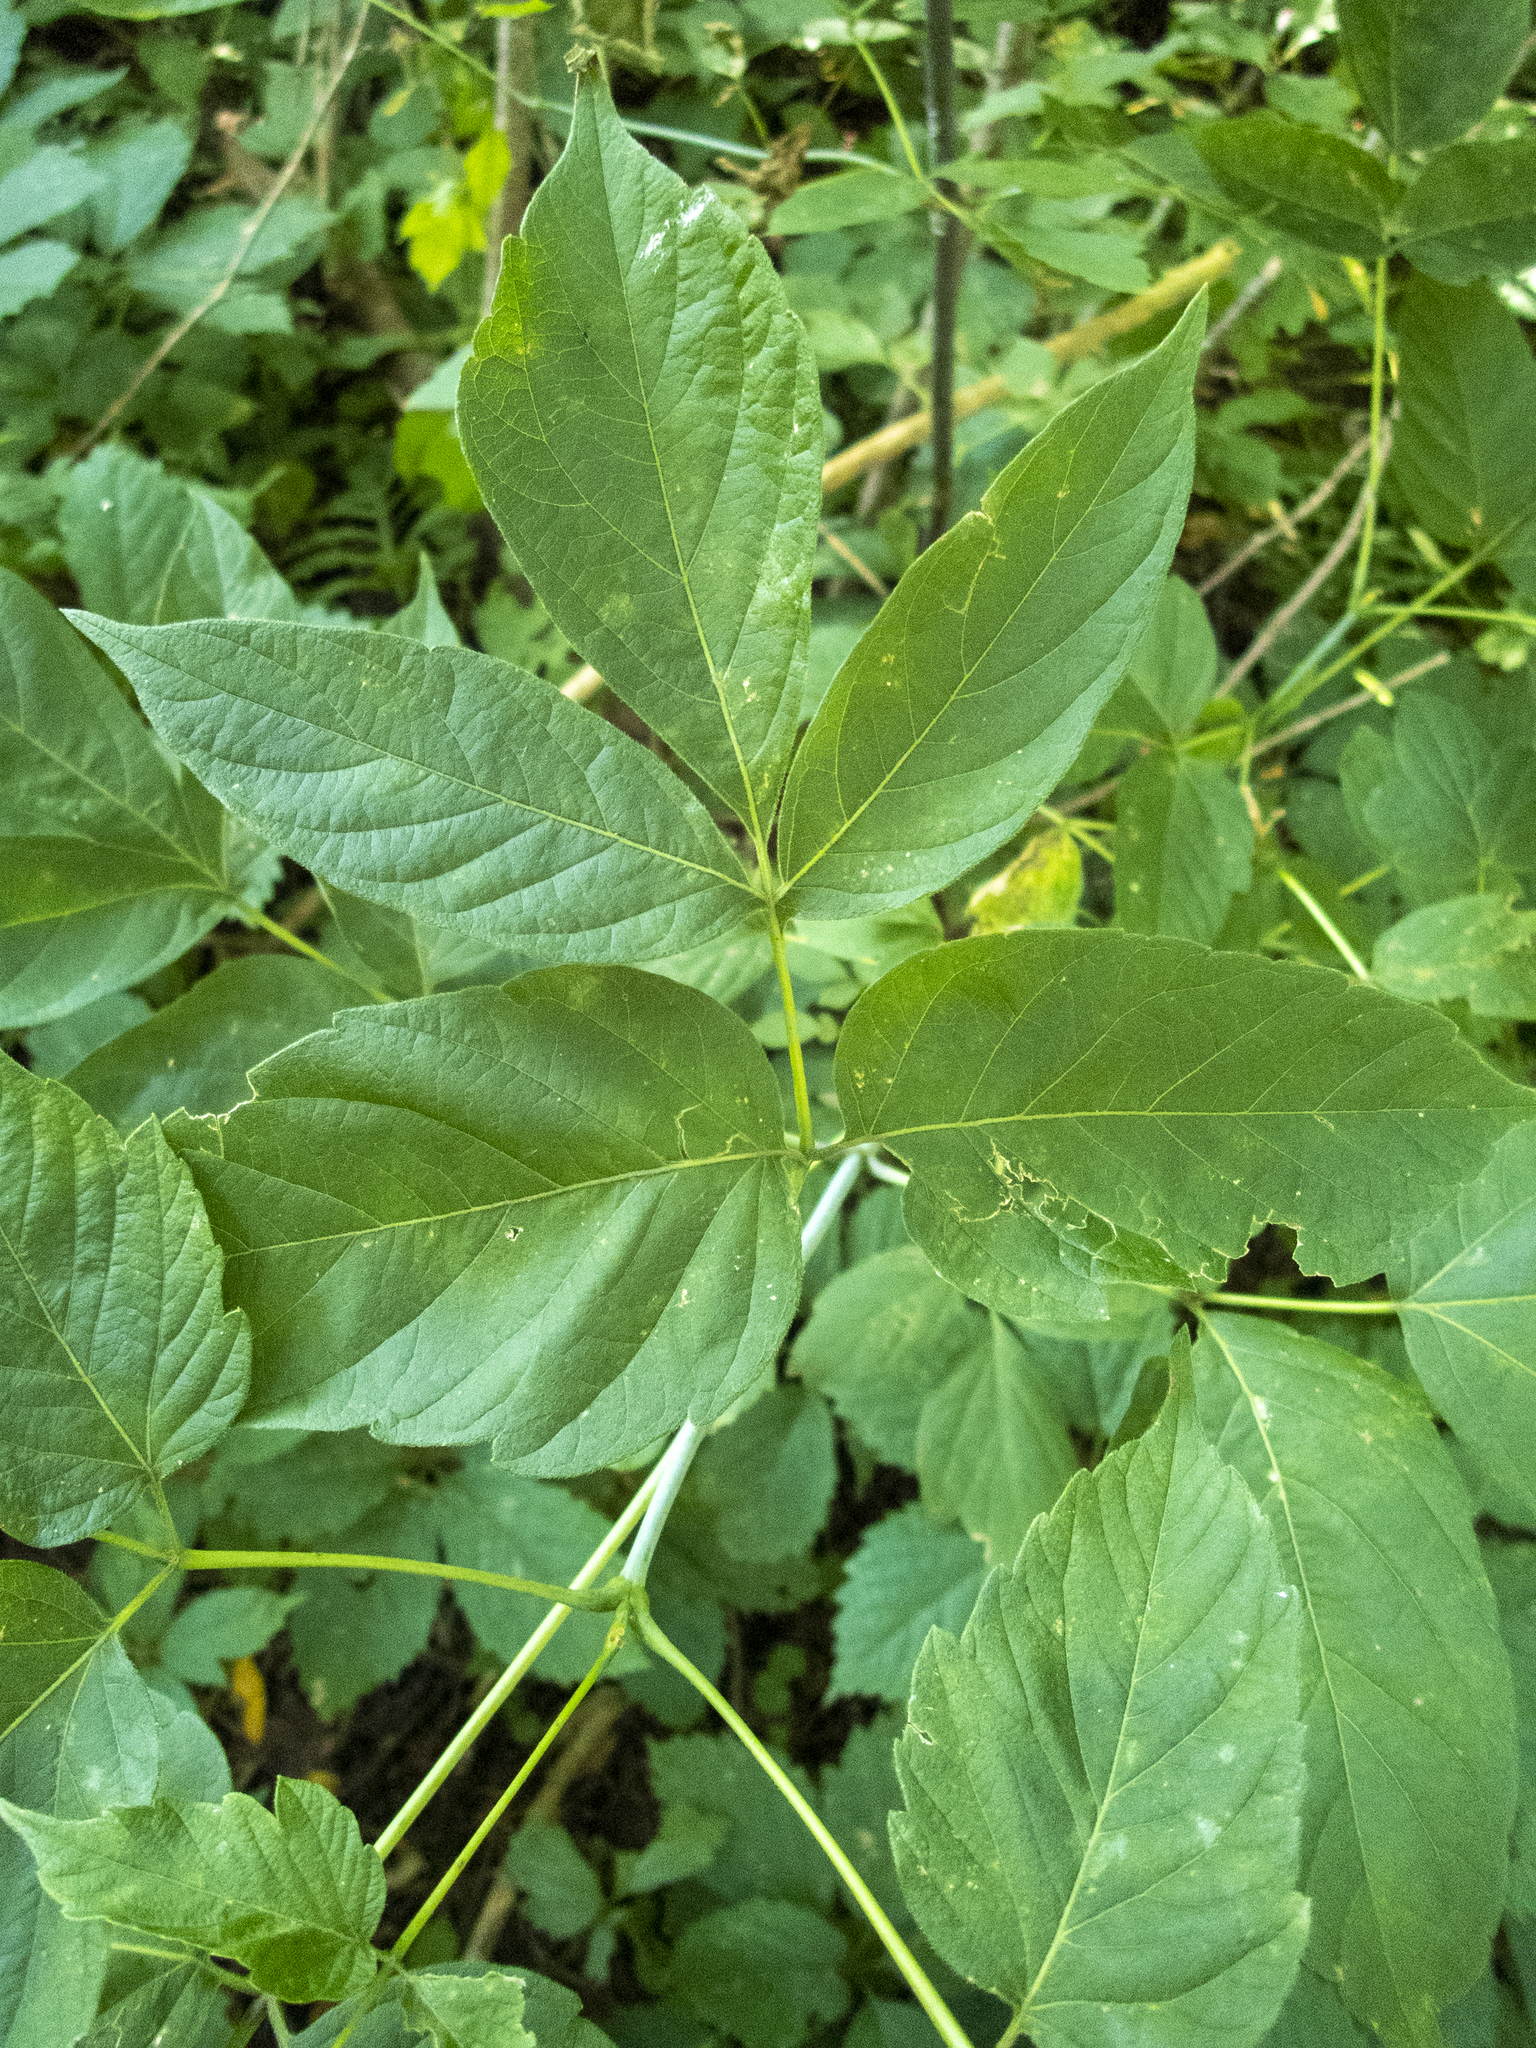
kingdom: Plantae
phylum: Tracheophyta
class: Magnoliopsida
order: Sapindales
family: Sapindaceae
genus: Acer
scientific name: Acer negundo
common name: Ashleaf maple
